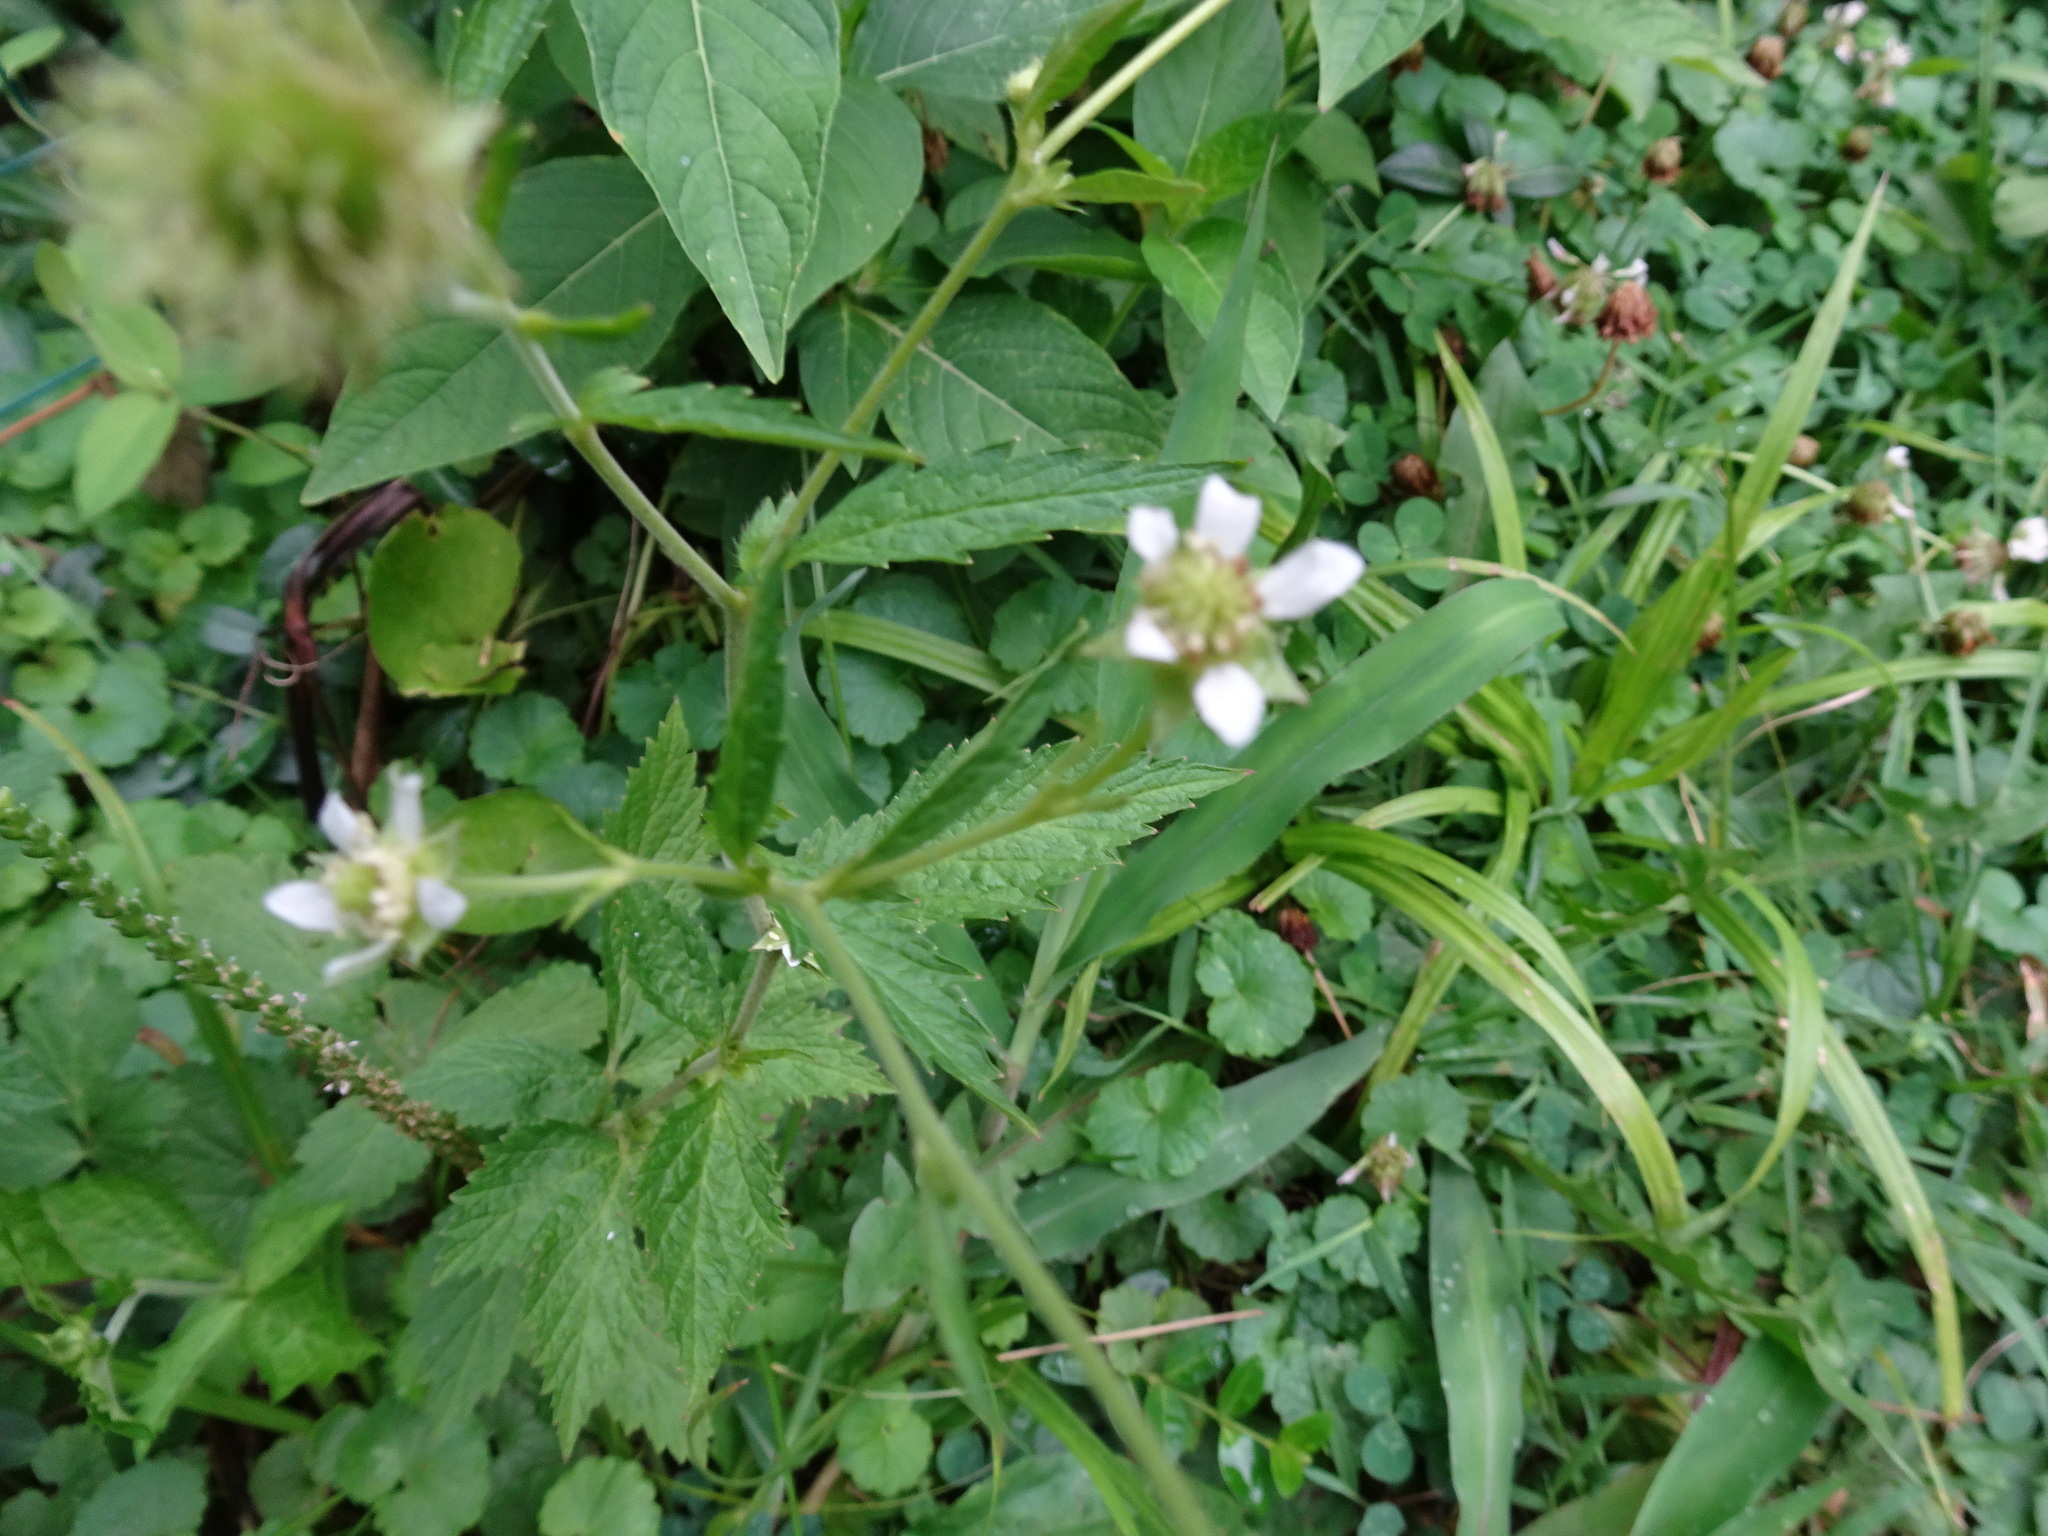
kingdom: Plantae
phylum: Tracheophyta
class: Magnoliopsida
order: Rosales
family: Rosaceae
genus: Geum
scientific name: Geum canadense
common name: White avens
